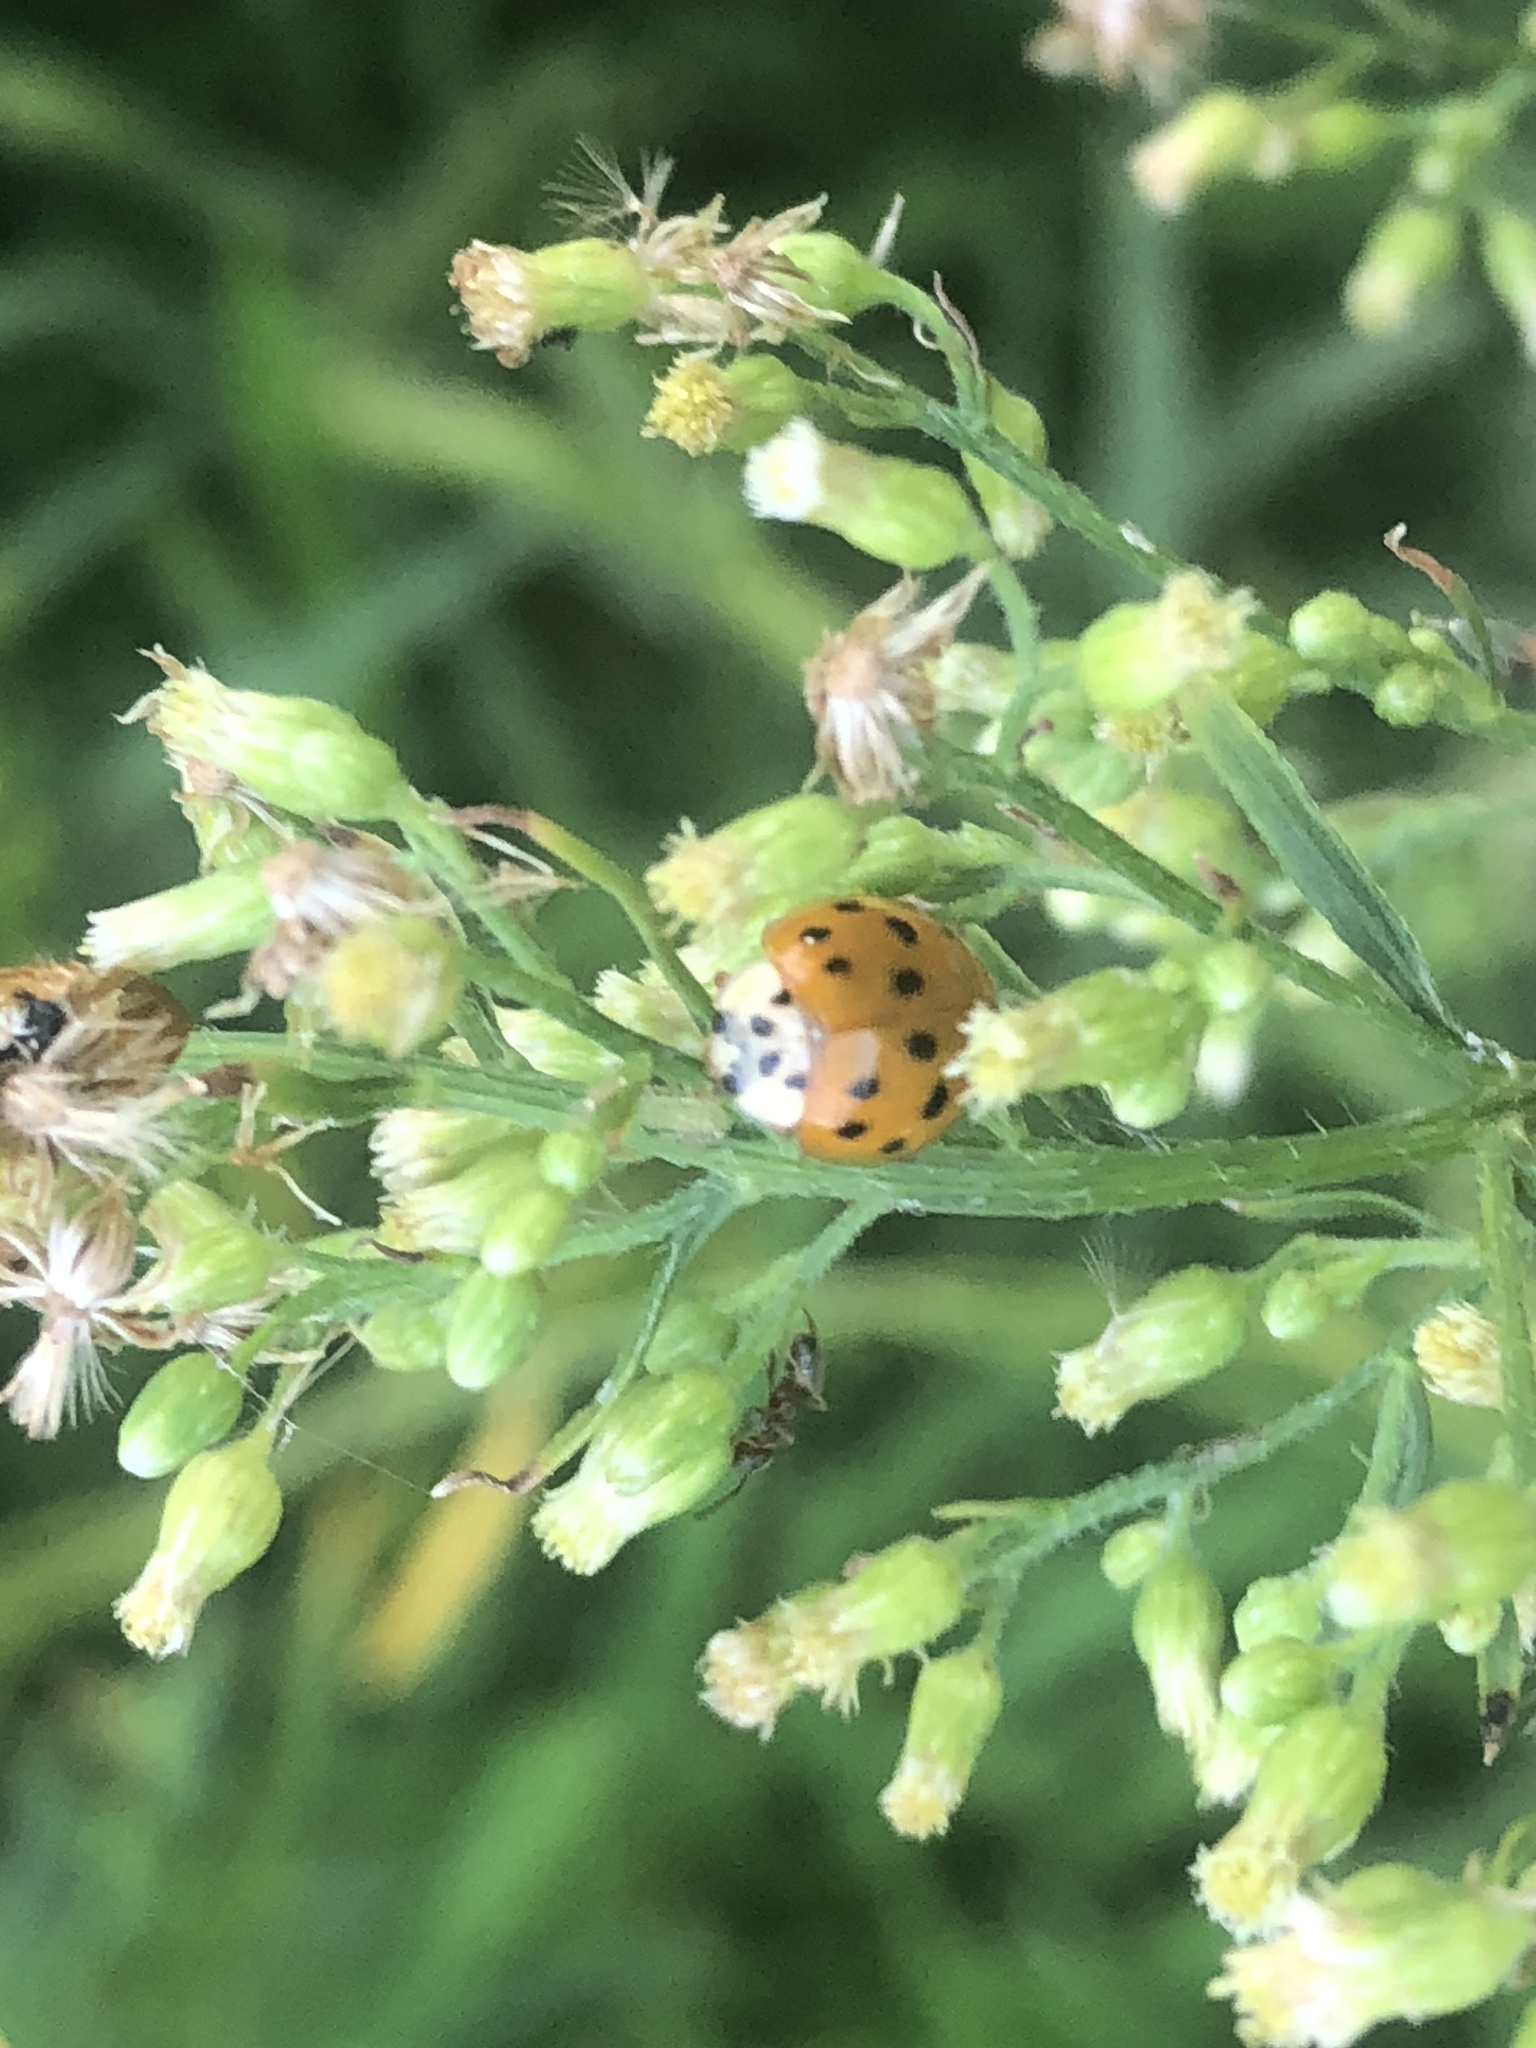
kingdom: Animalia
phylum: Arthropoda
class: Insecta
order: Coleoptera
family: Coccinellidae
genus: Harmonia
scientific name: Harmonia axyridis
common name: Harlequin ladybird
